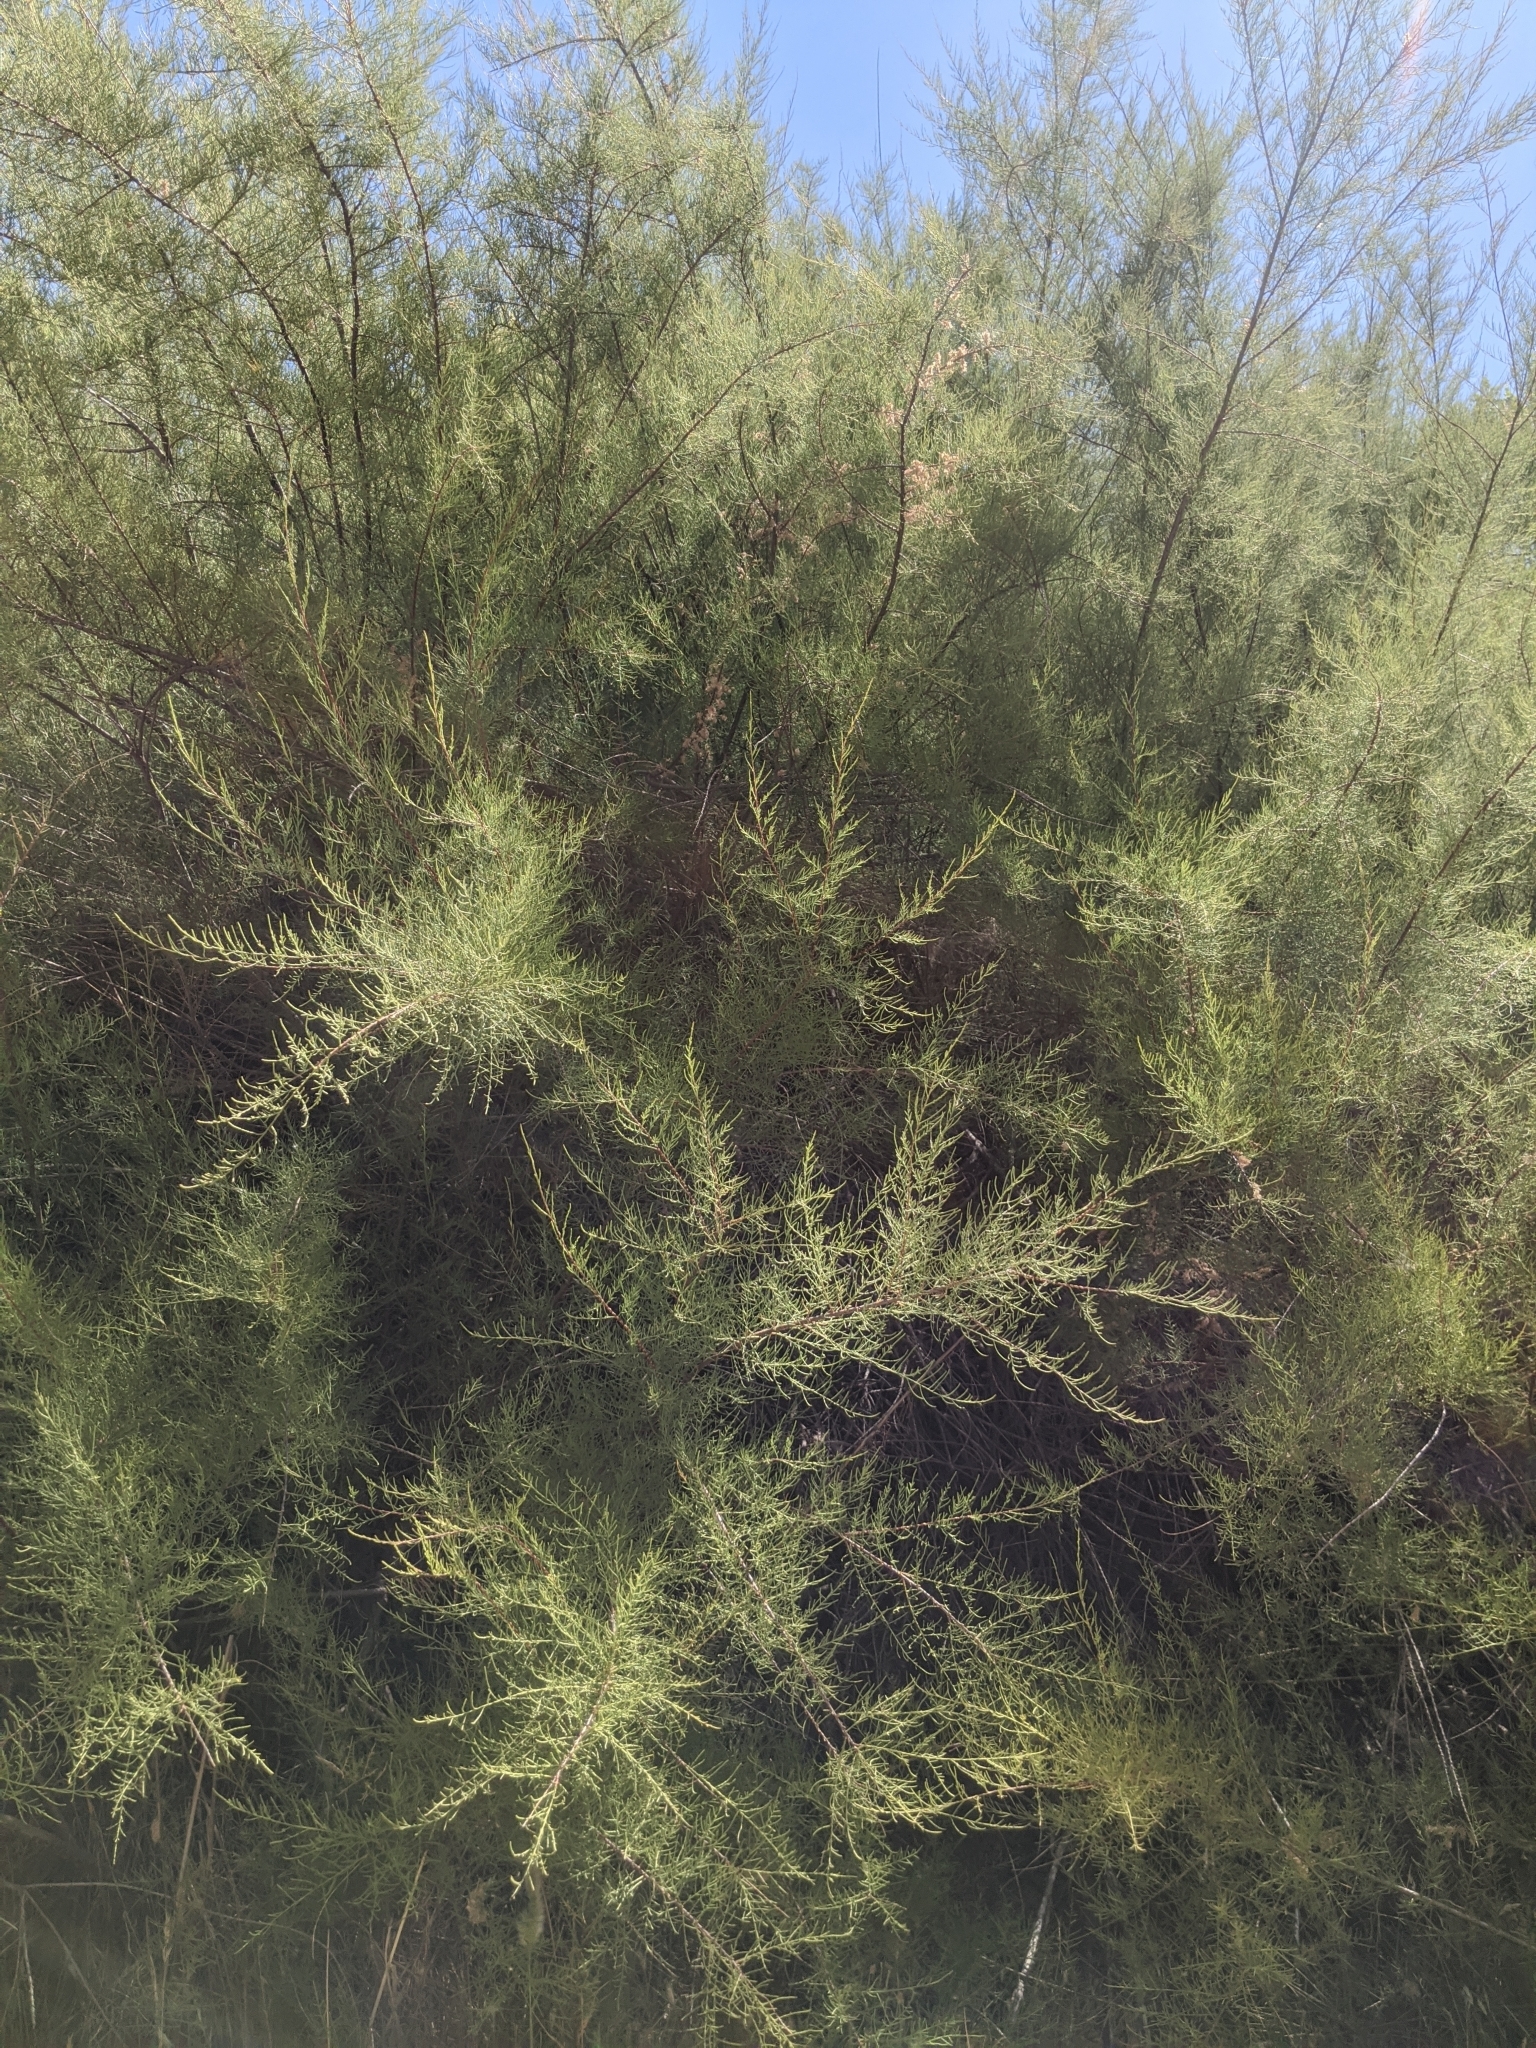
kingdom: Plantae
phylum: Tracheophyta
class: Magnoliopsida
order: Caryophyllales
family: Tamaricaceae
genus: Tamarix
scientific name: Tamarix
